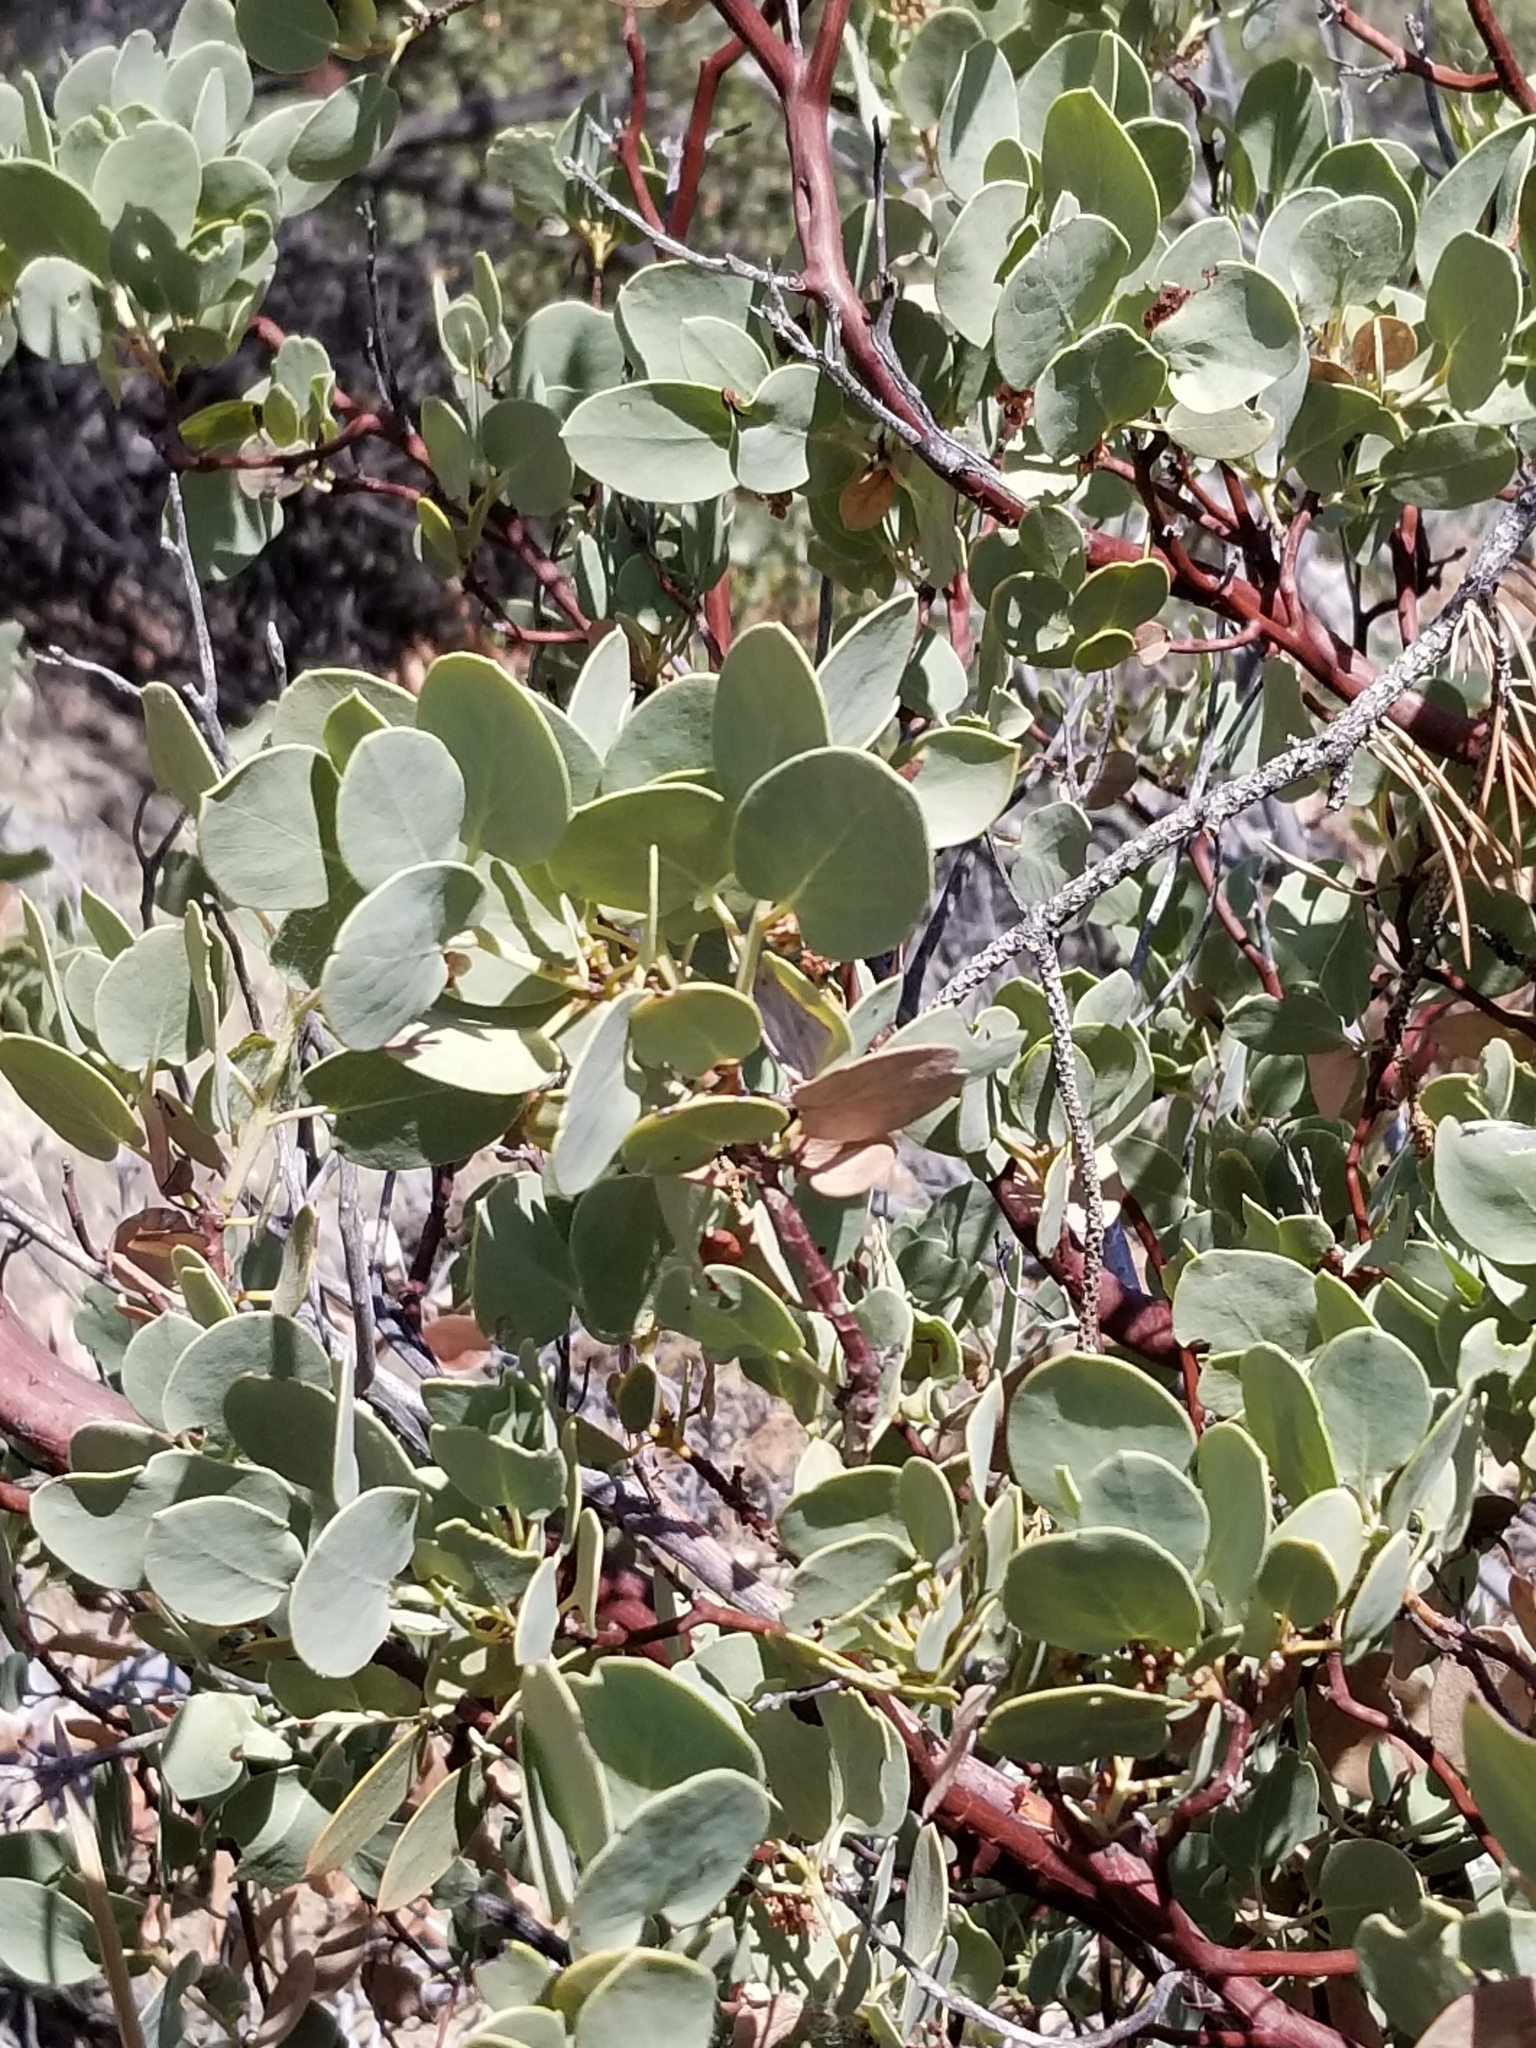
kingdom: Plantae
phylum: Tracheophyta
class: Magnoliopsida
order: Ericales
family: Ericaceae
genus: Arctostaphylos
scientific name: Arctostaphylos glauca
